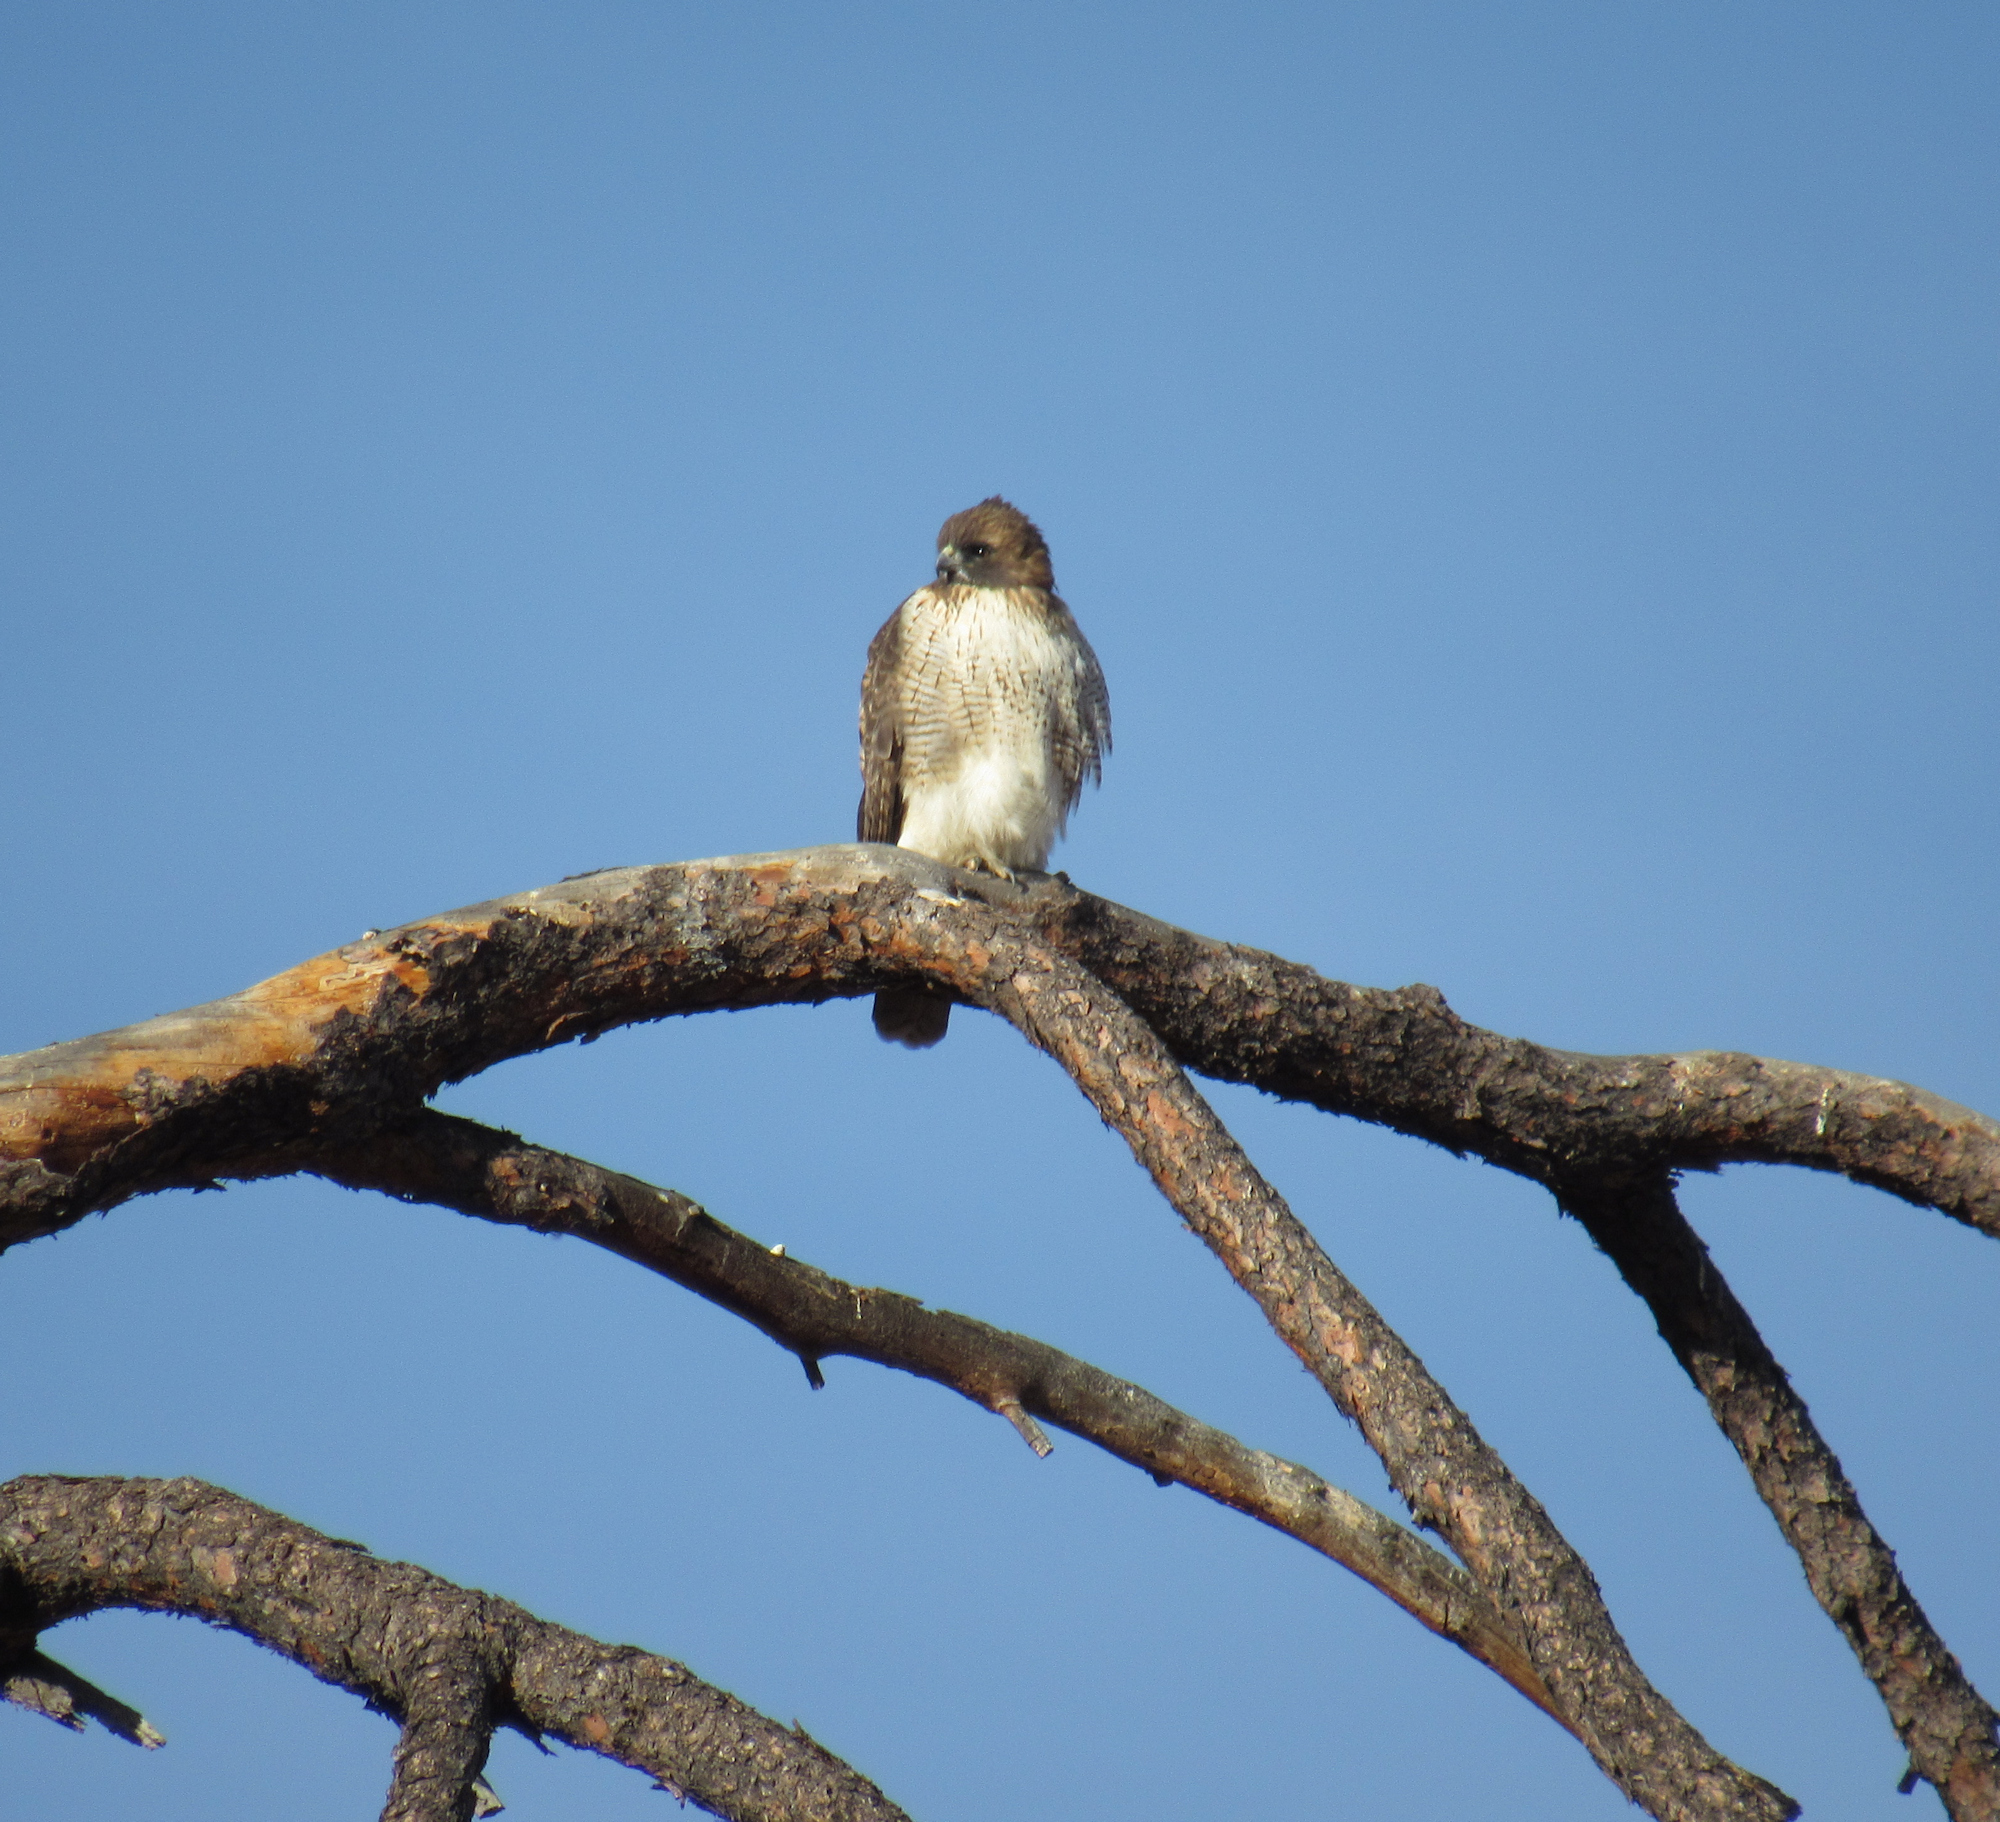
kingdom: Animalia
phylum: Chordata
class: Aves
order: Accipitriformes
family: Accipitridae
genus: Buteo
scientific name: Buteo jamaicensis
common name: Red-tailed hawk
